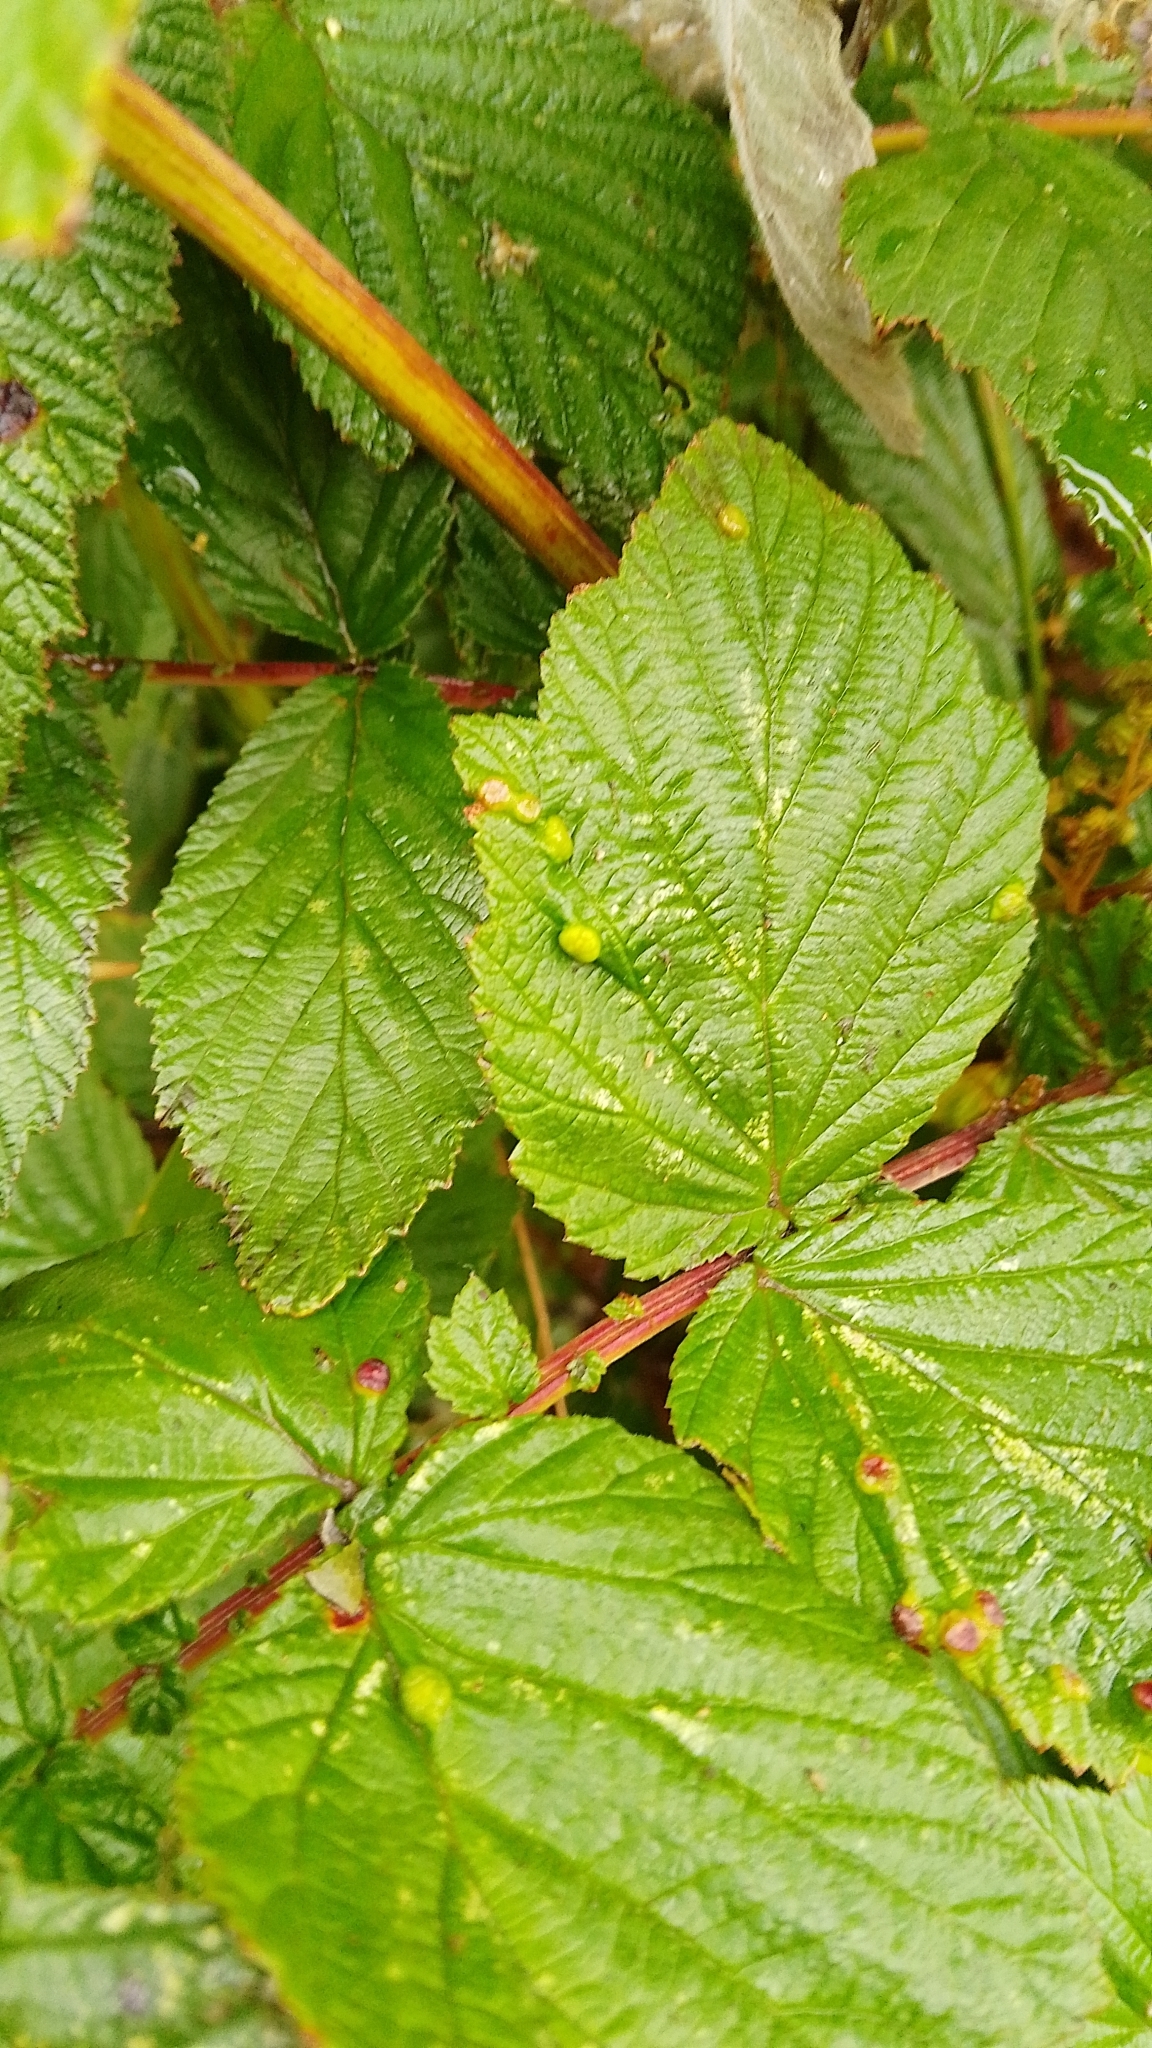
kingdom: Animalia
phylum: Arthropoda
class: Insecta
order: Diptera
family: Cecidomyiidae
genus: Dasineura
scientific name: Dasineura ulmaria
